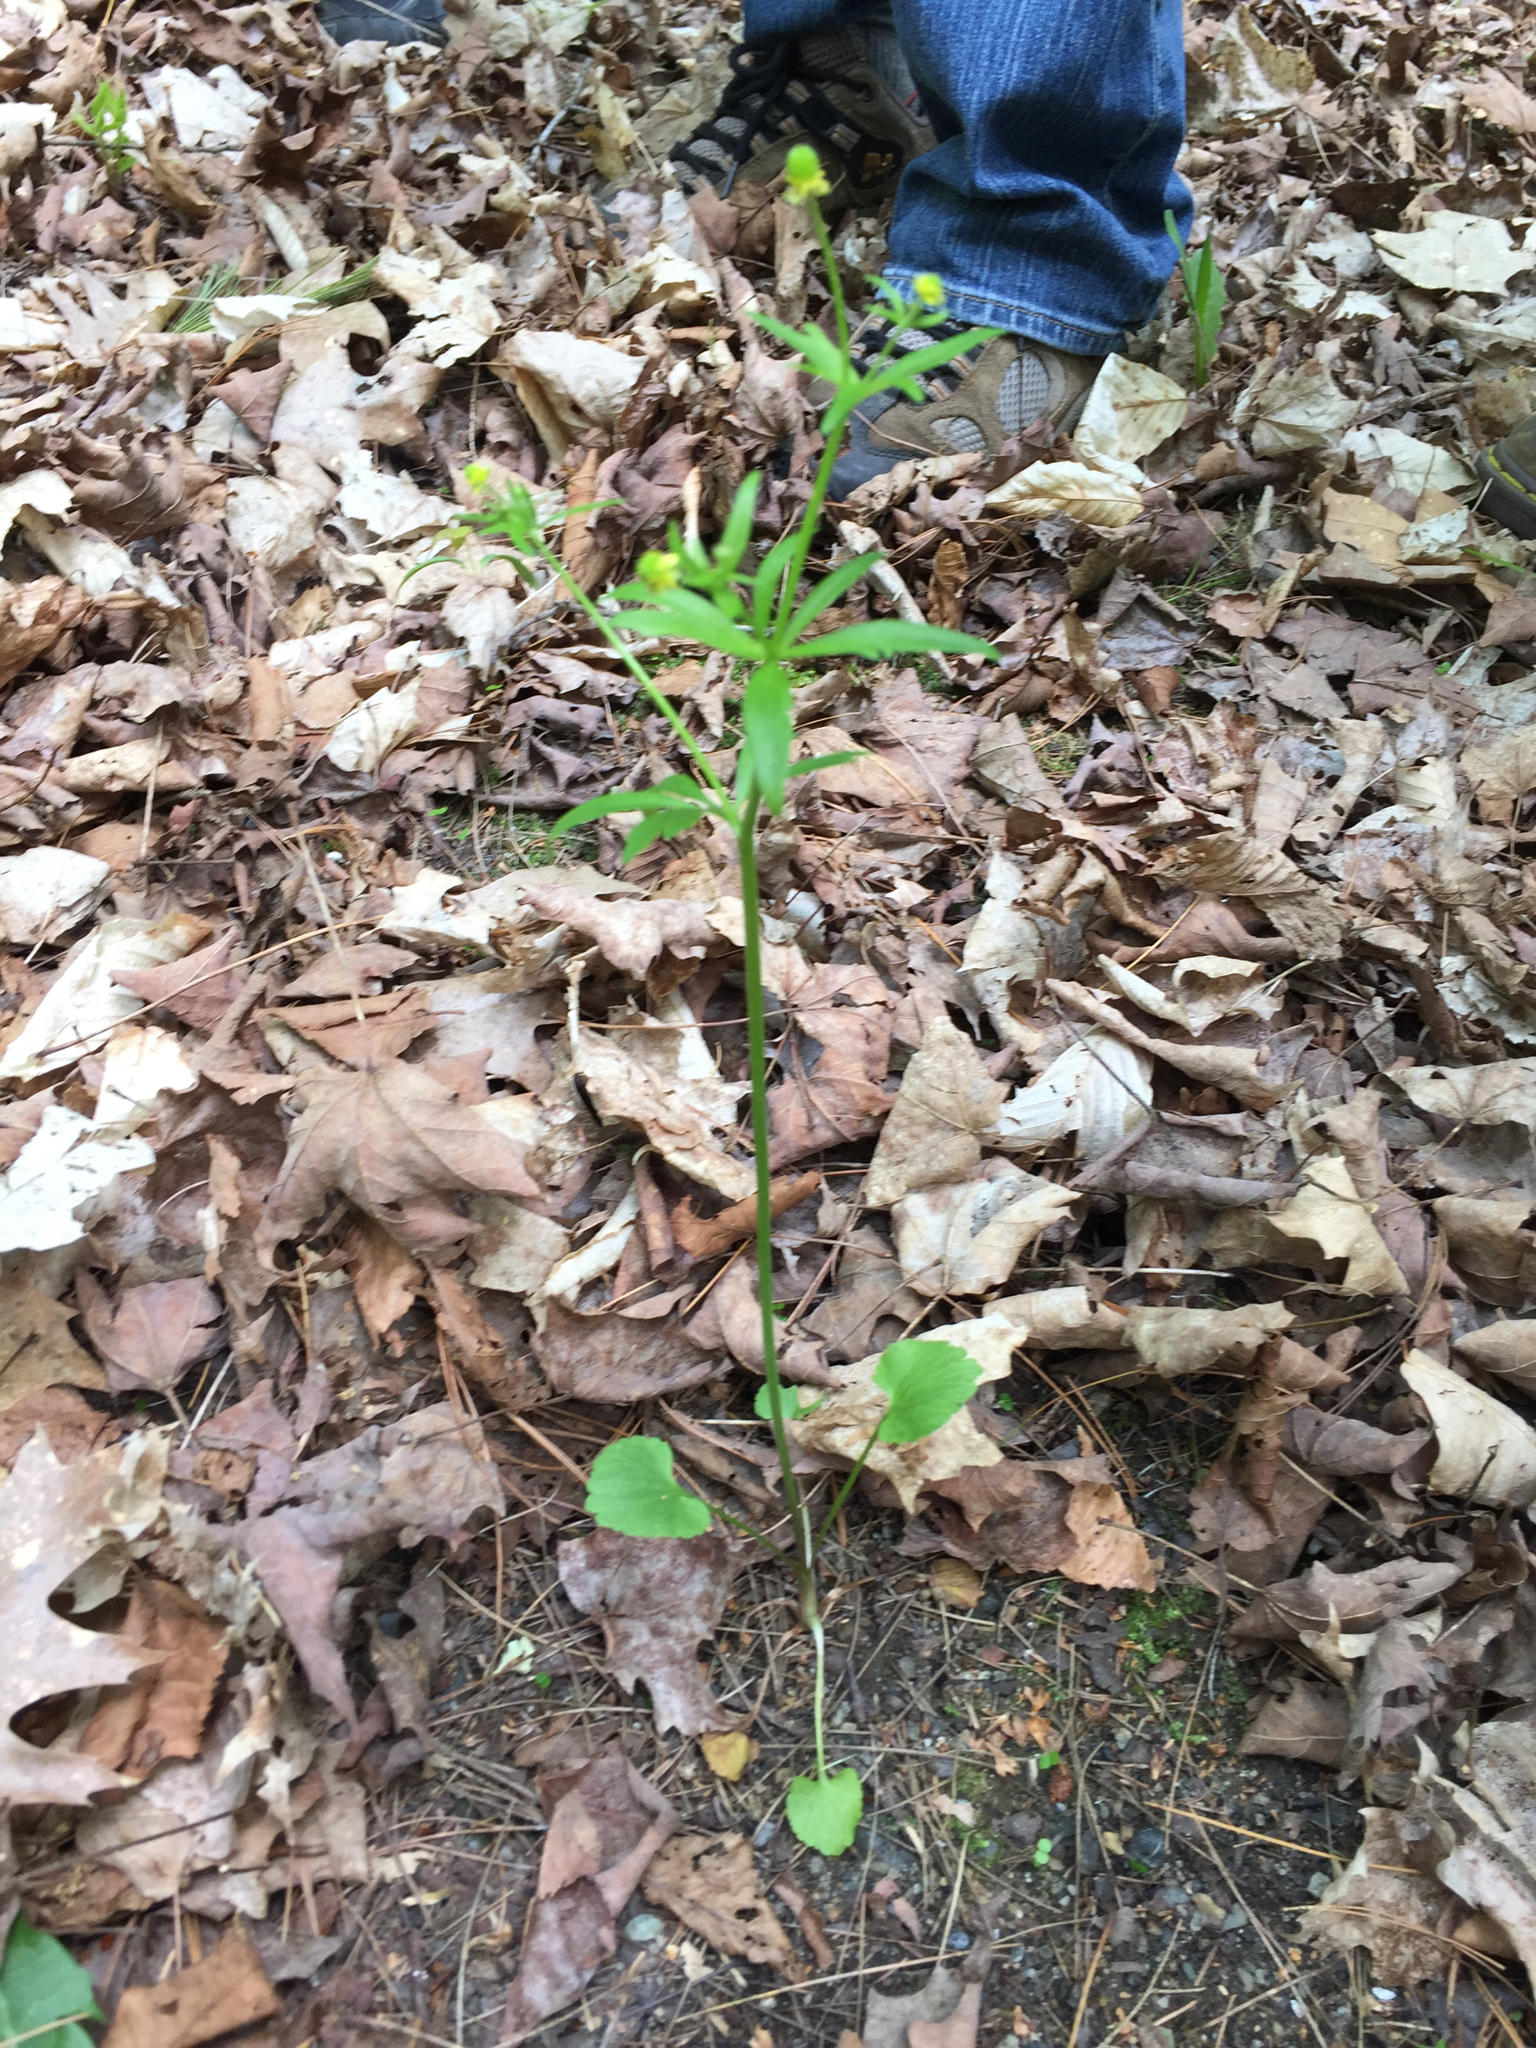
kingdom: Plantae
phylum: Tracheophyta
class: Magnoliopsida
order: Ranunculales
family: Ranunculaceae
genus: Ranunculus
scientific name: Ranunculus abortivus
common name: Early wood buttercup
